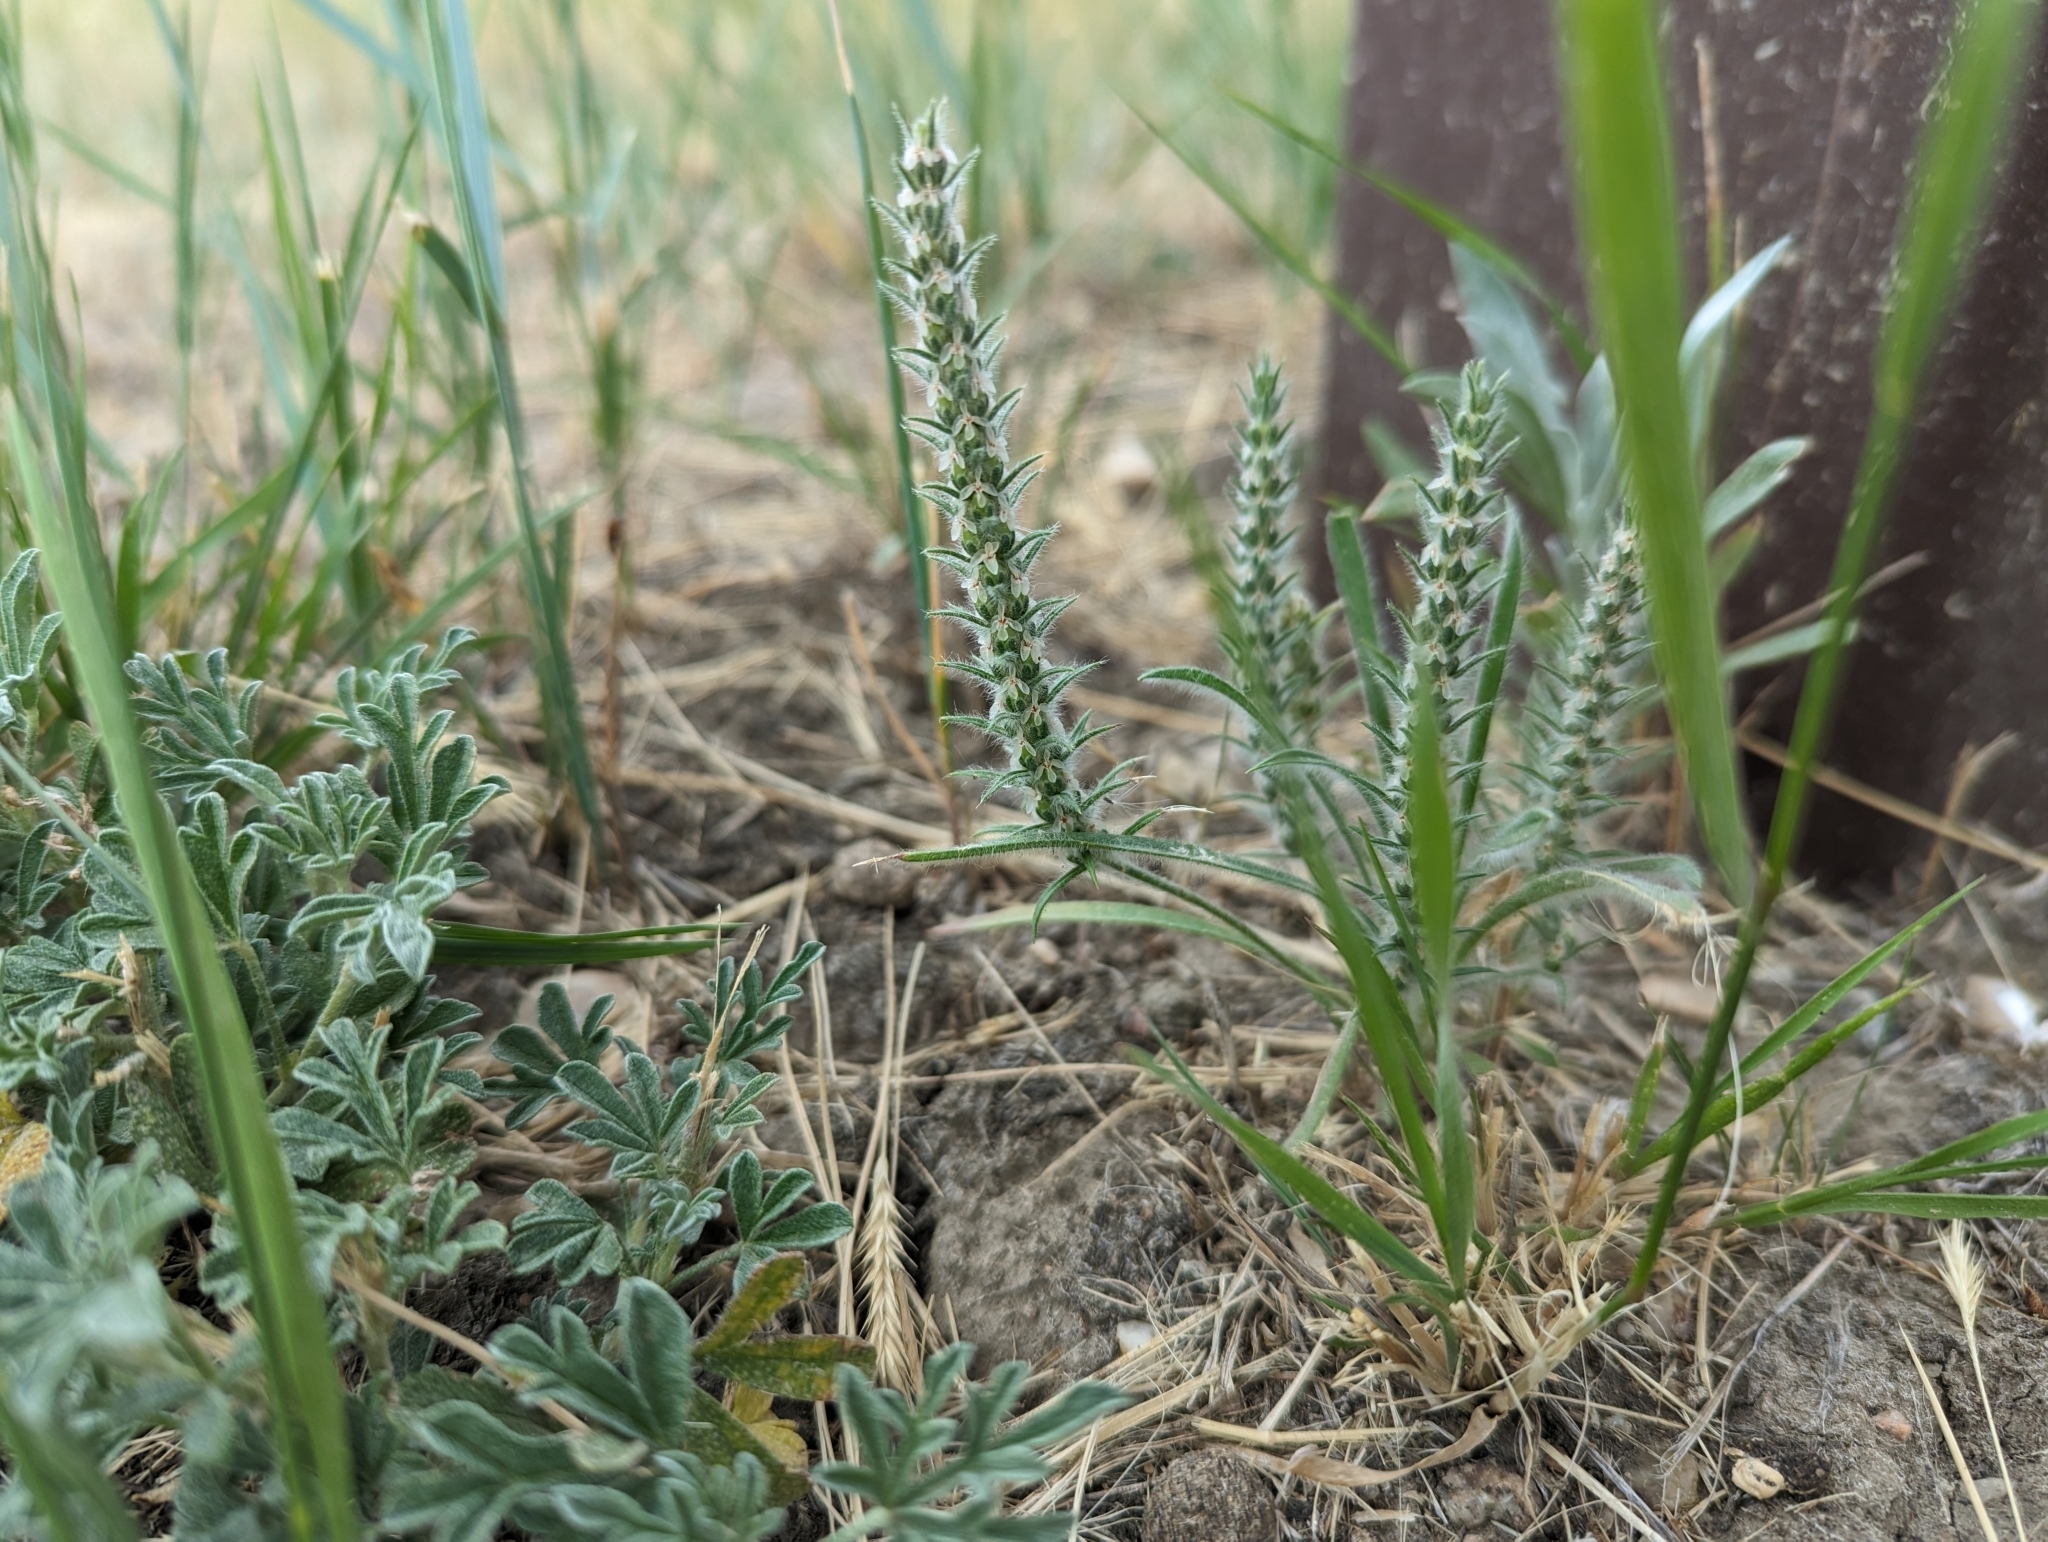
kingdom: Plantae
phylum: Tracheophyta
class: Magnoliopsida
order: Lamiales
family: Plantaginaceae
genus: Plantago
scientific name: Plantago patagonica
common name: Patagonia indian-wheat
